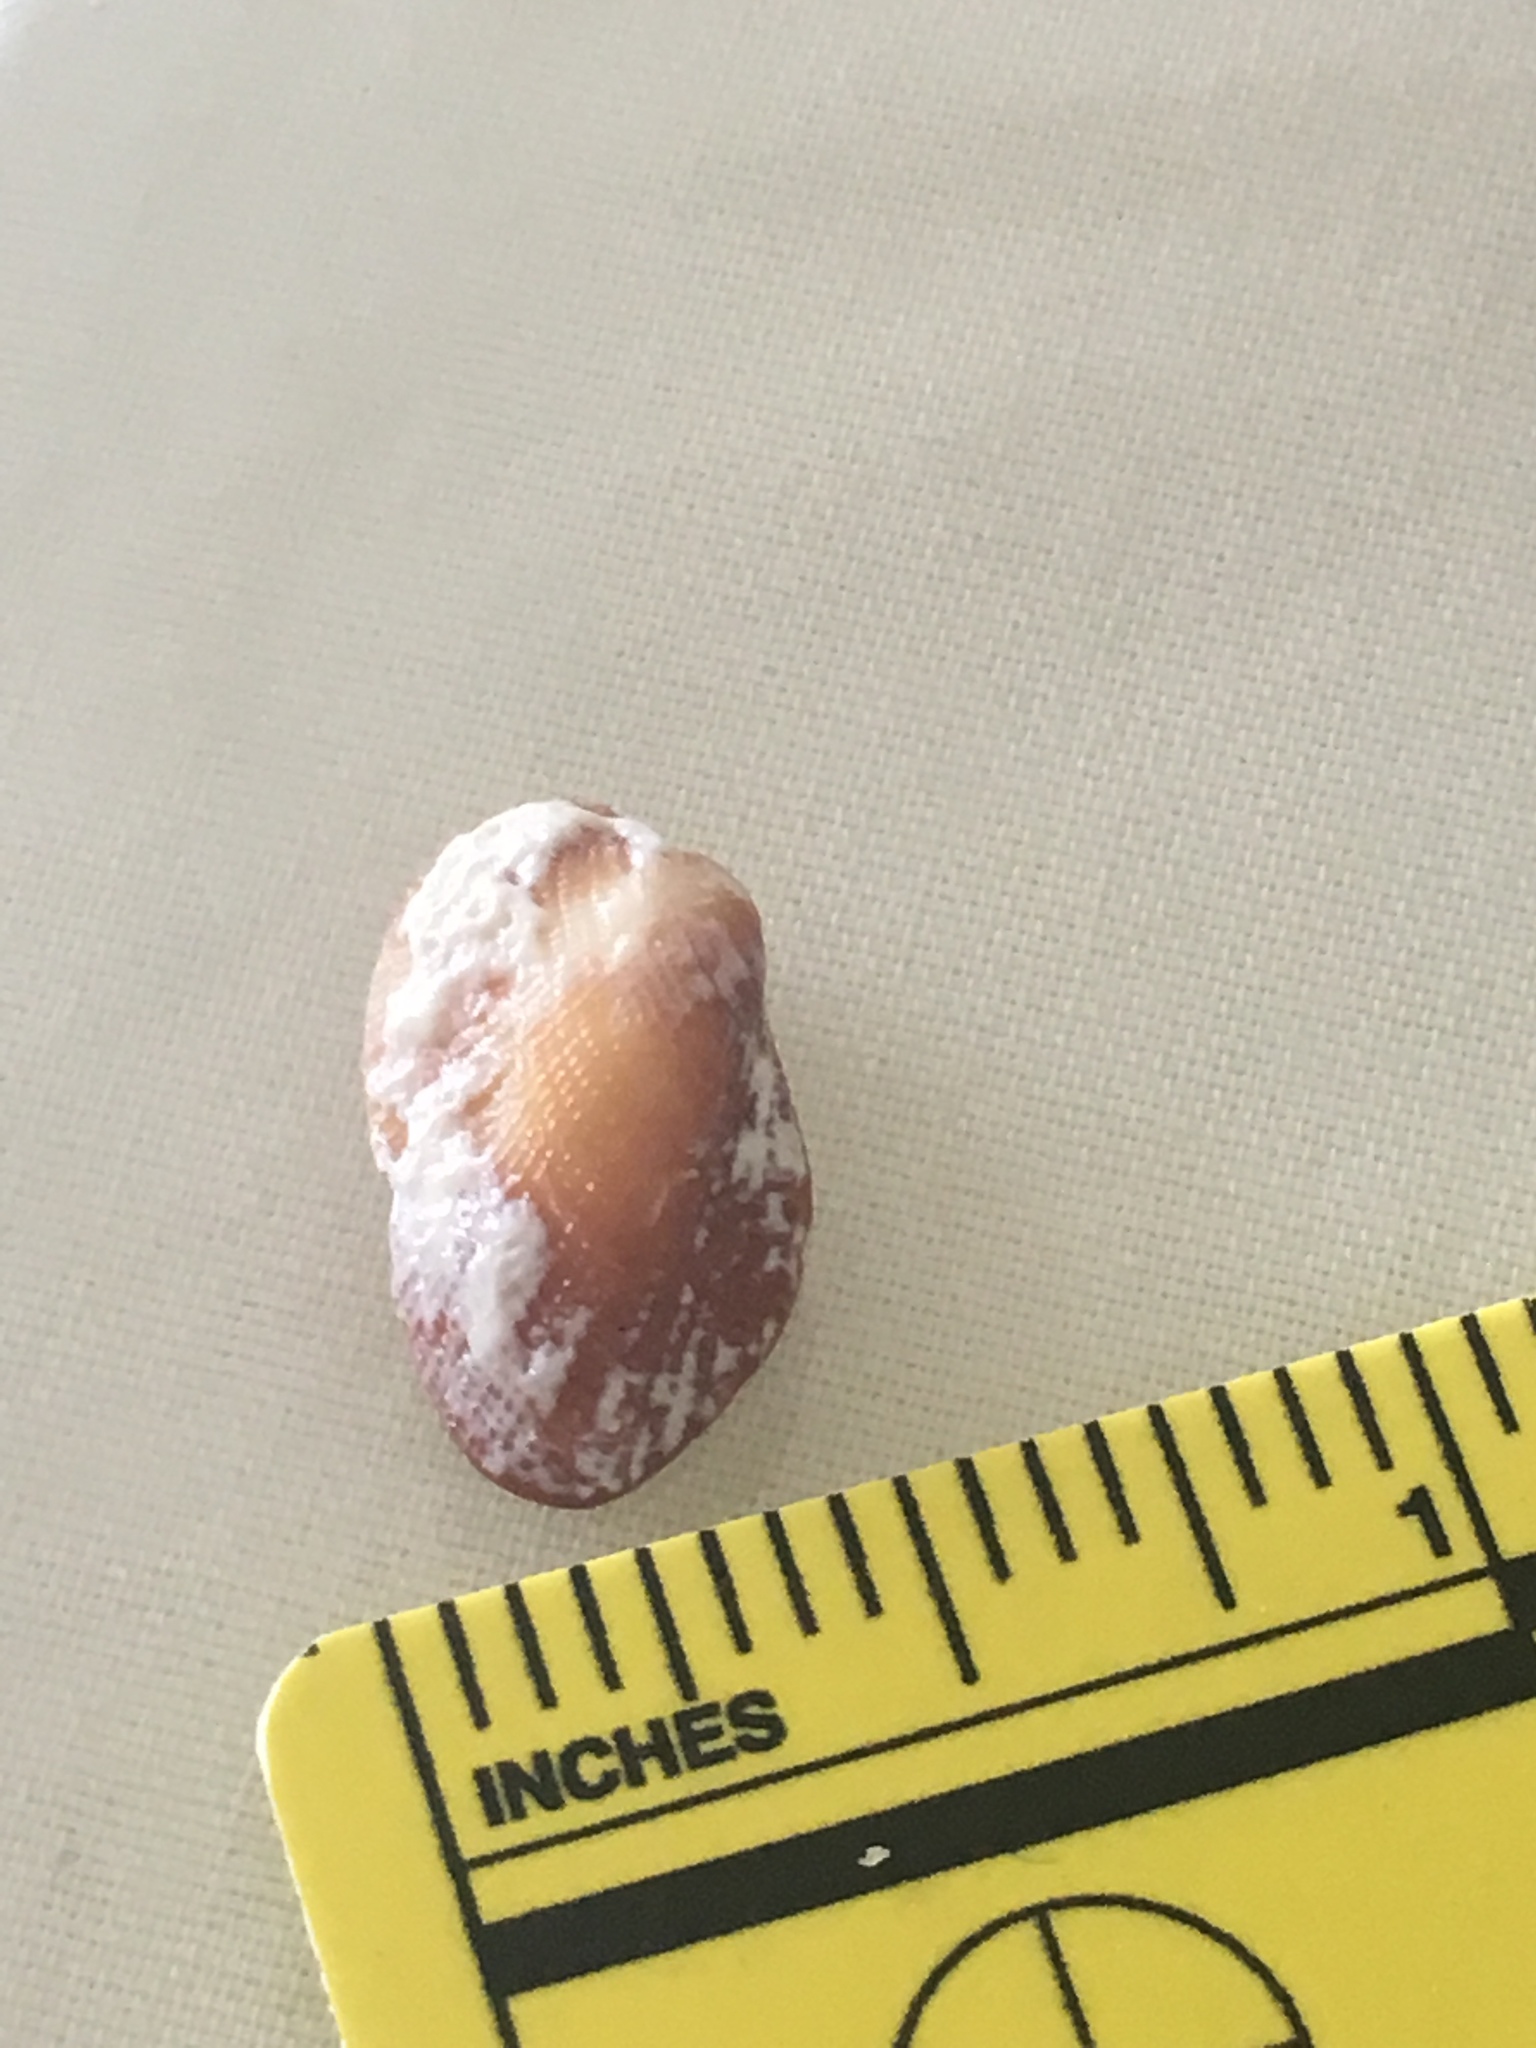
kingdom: Animalia
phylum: Mollusca
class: Bivalvia
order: Arcida
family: Arcidae
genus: Barbatia
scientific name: Barbatia domingensis
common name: White miniature ark
